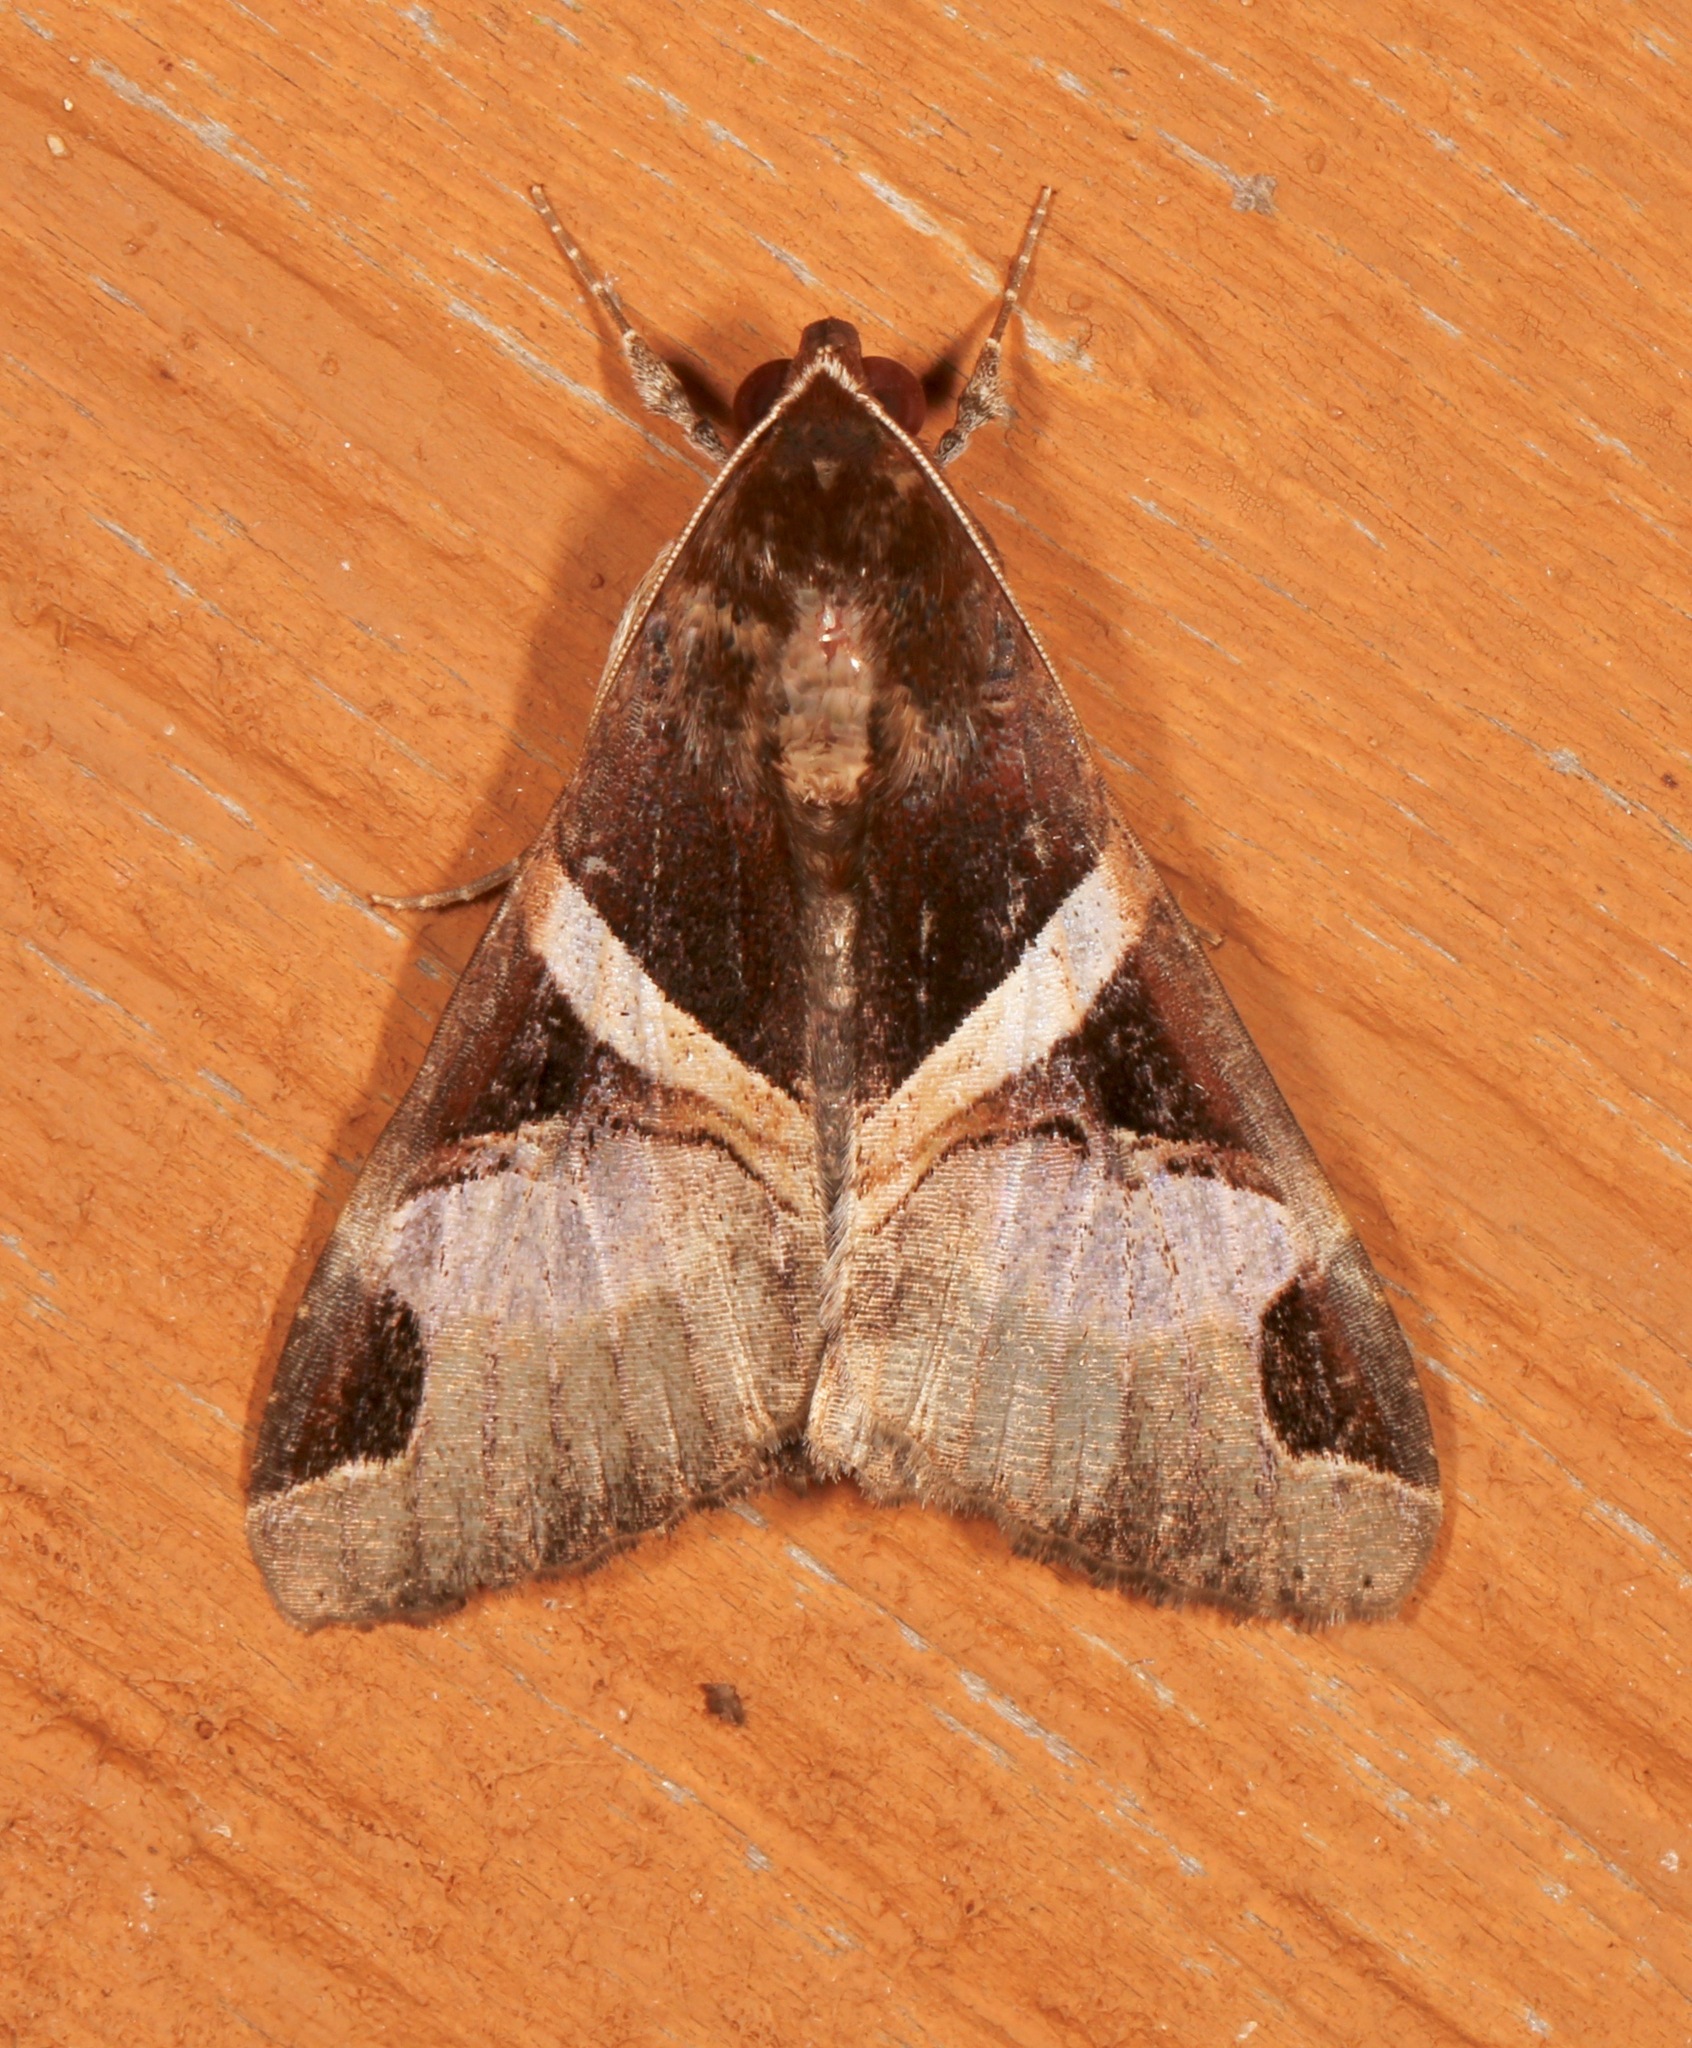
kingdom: Animalia
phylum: Arthropoda
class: Insecta
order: Lepidoptera
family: Erebidae
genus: Melipotis
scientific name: Melipotis fasciolaris
